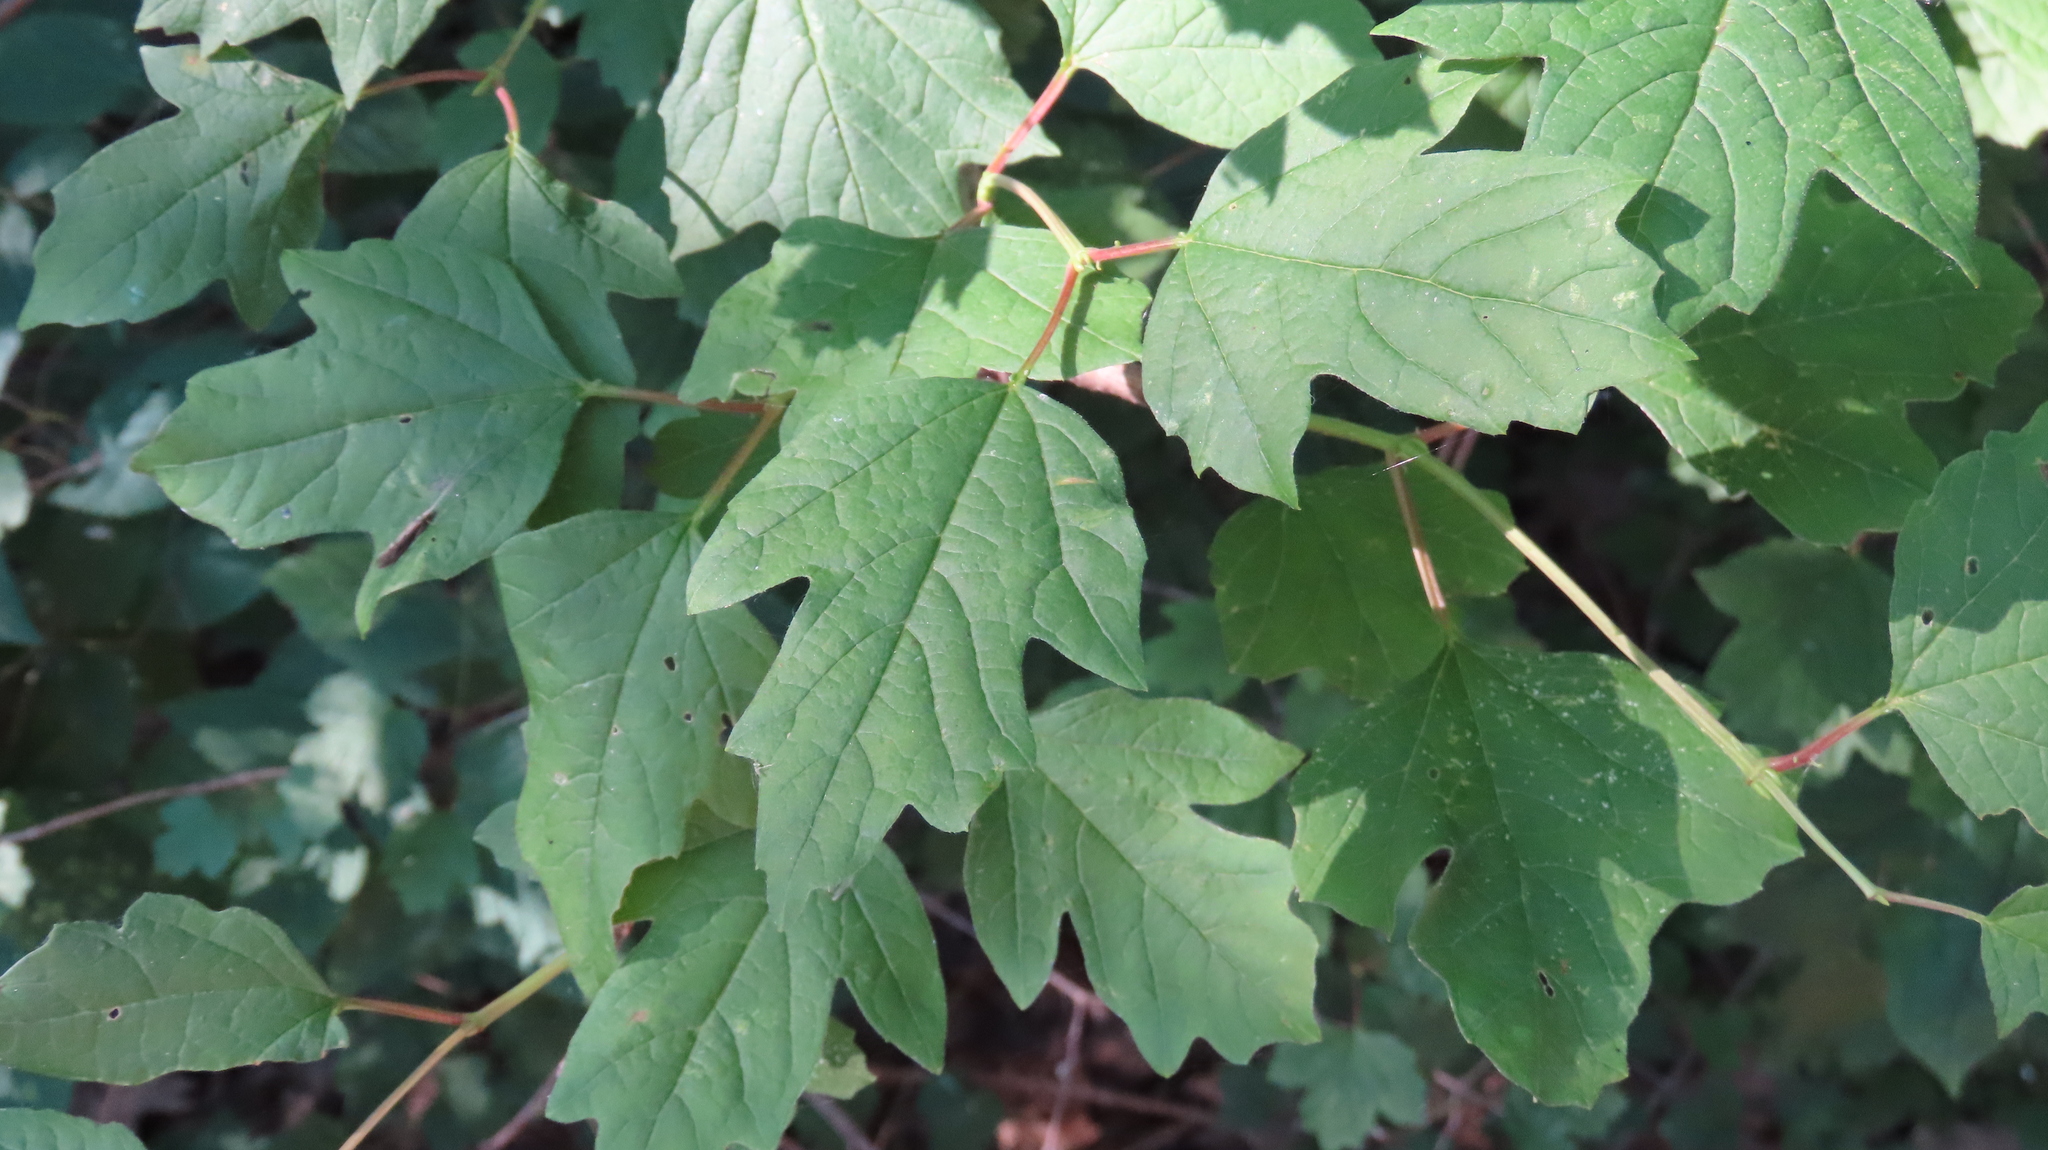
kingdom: Plantae
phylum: Tracheophyta
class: Magnoliopsida
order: Dipsacales
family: Viburnaceae
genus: Viburnum
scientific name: Viburnum opulus
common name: Guelder-rose
